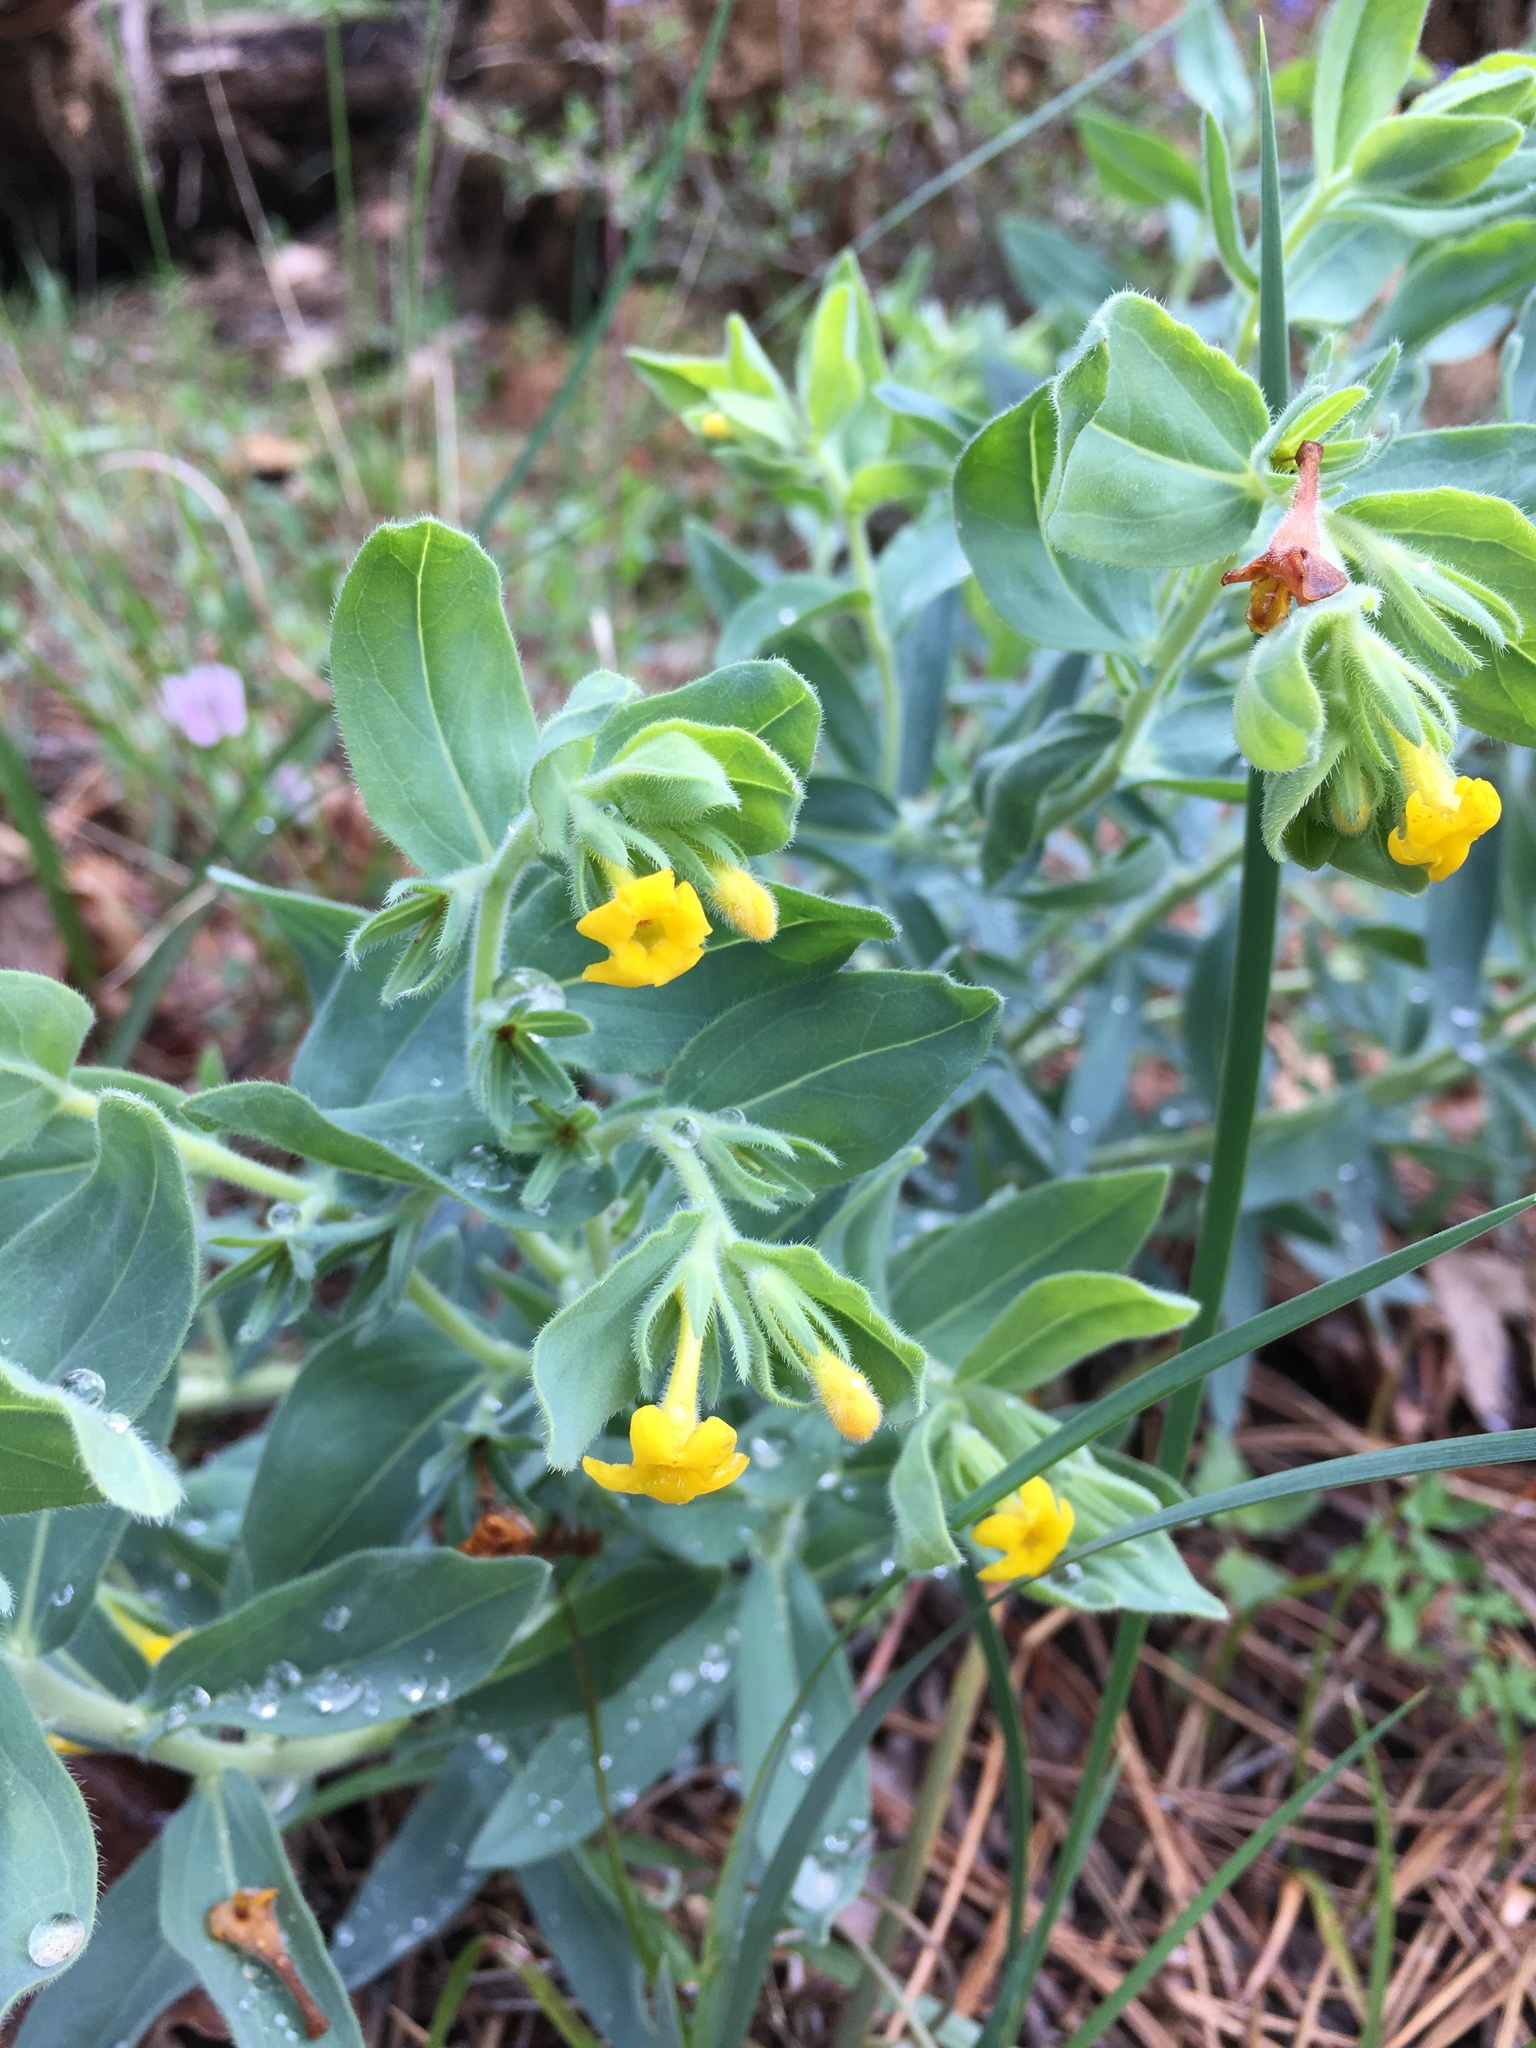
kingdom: Plantae
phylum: Tracheophyta
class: Magnoliopsida
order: Boraginales
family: Boraginaceae
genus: Lithospermum
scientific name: Lithospermum californicum
